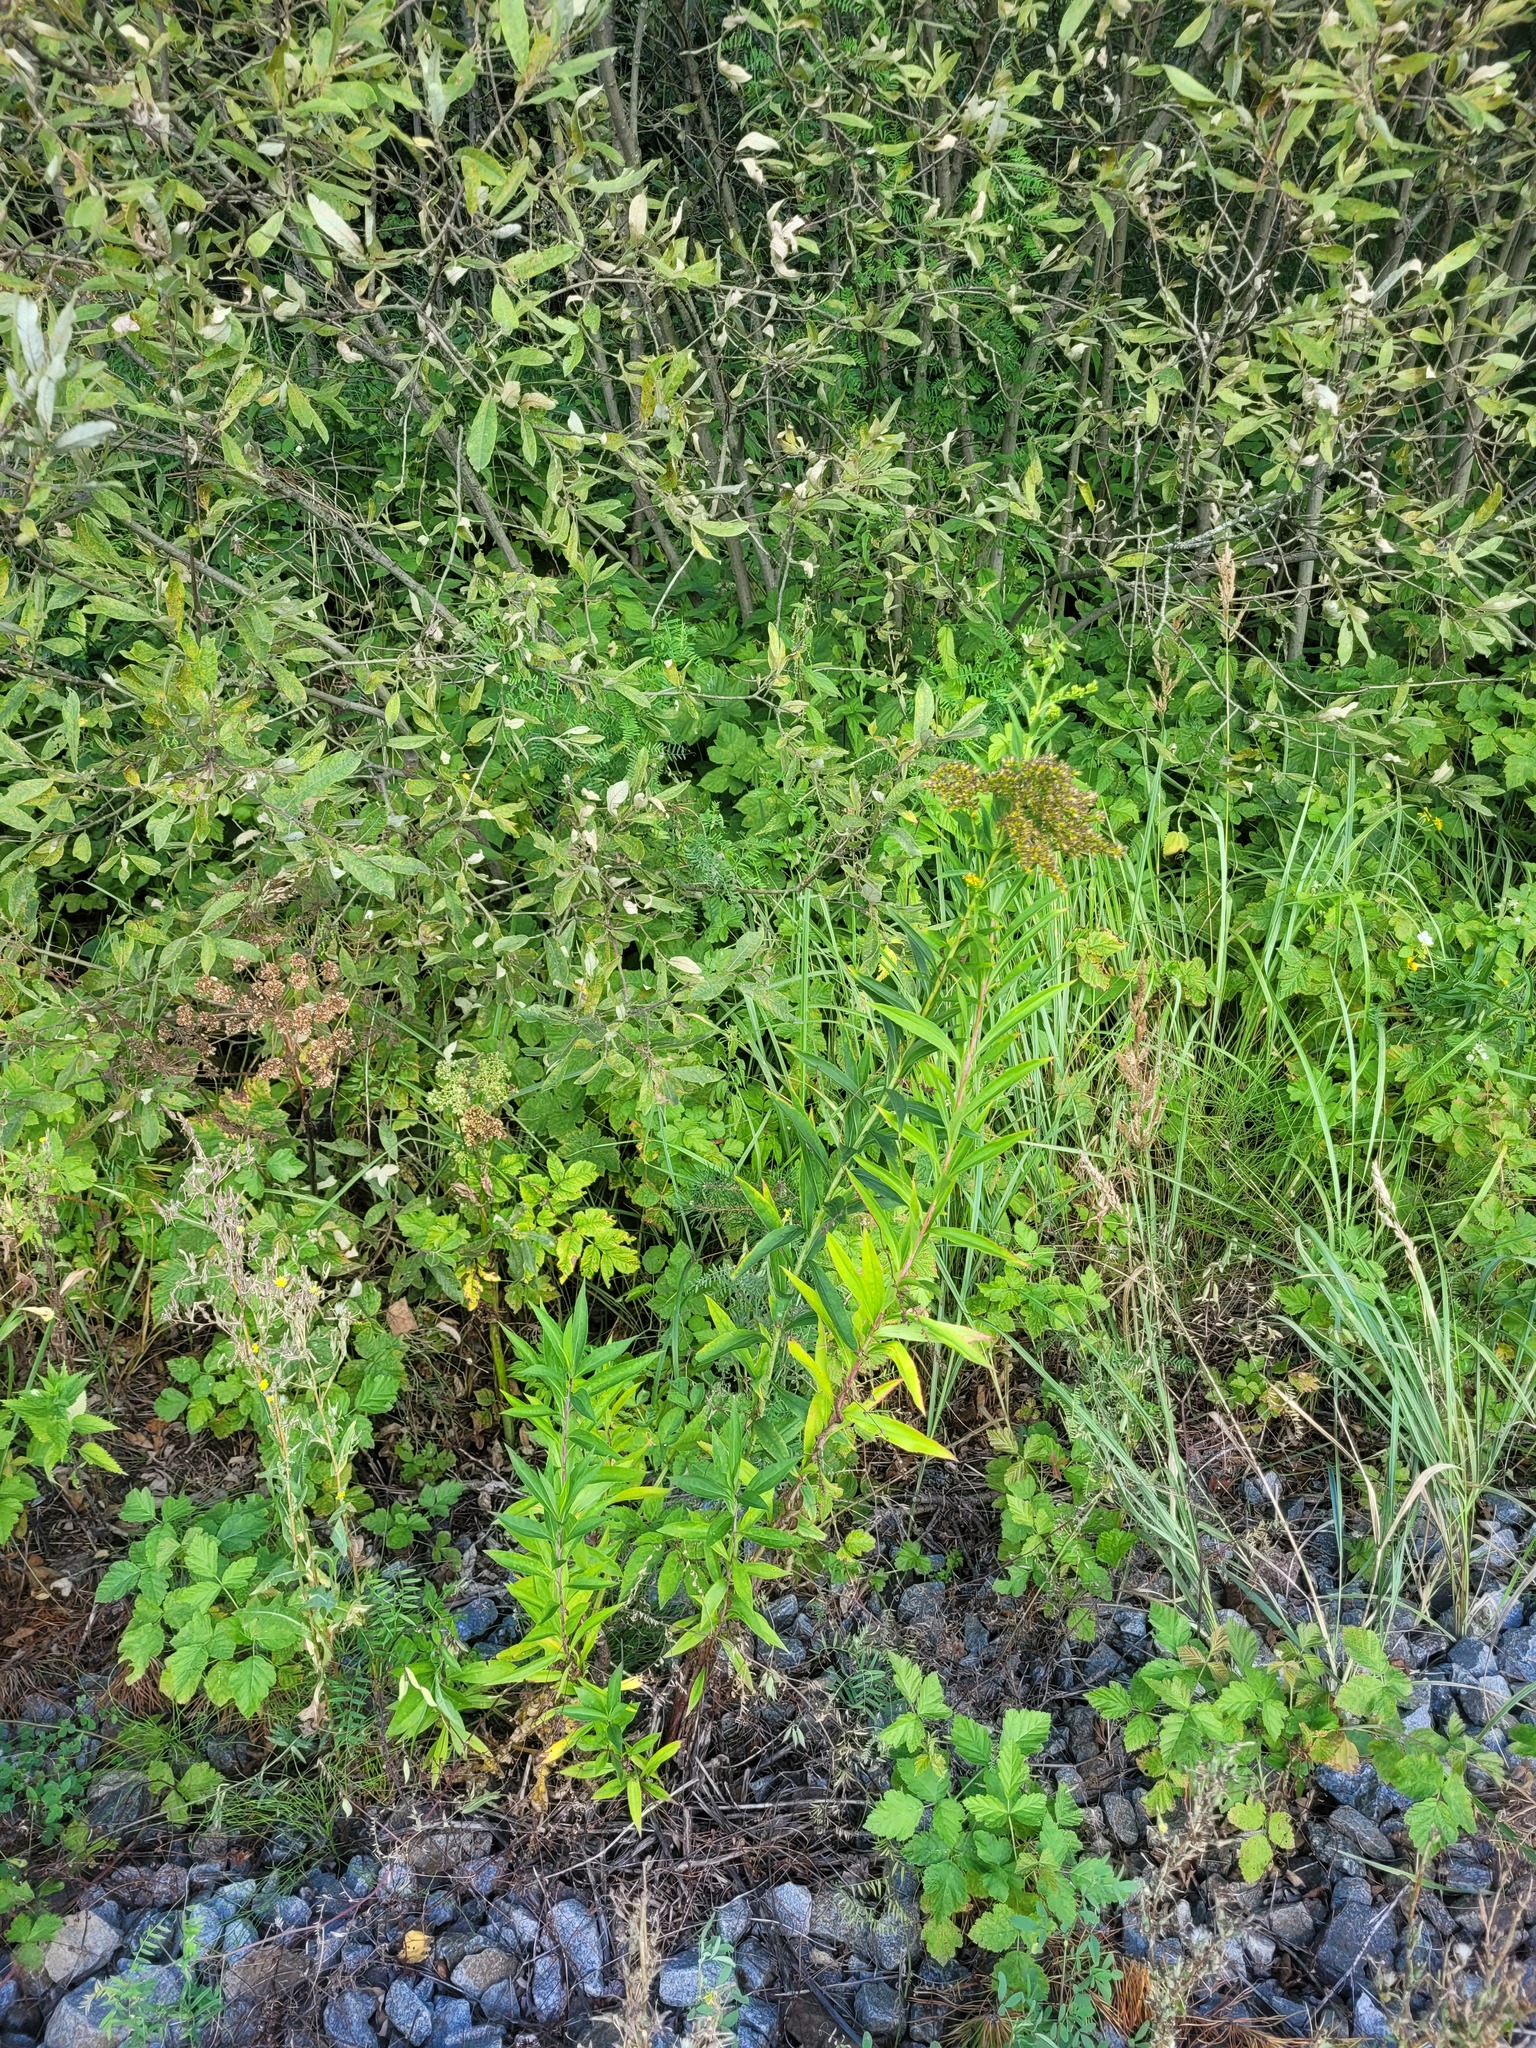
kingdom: Plantae
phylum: Tracheophyta
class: Magnoliopsida
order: Asterales
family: Asteraceae
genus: Solidago
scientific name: Solidago gigantea
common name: Giant goldenrod
